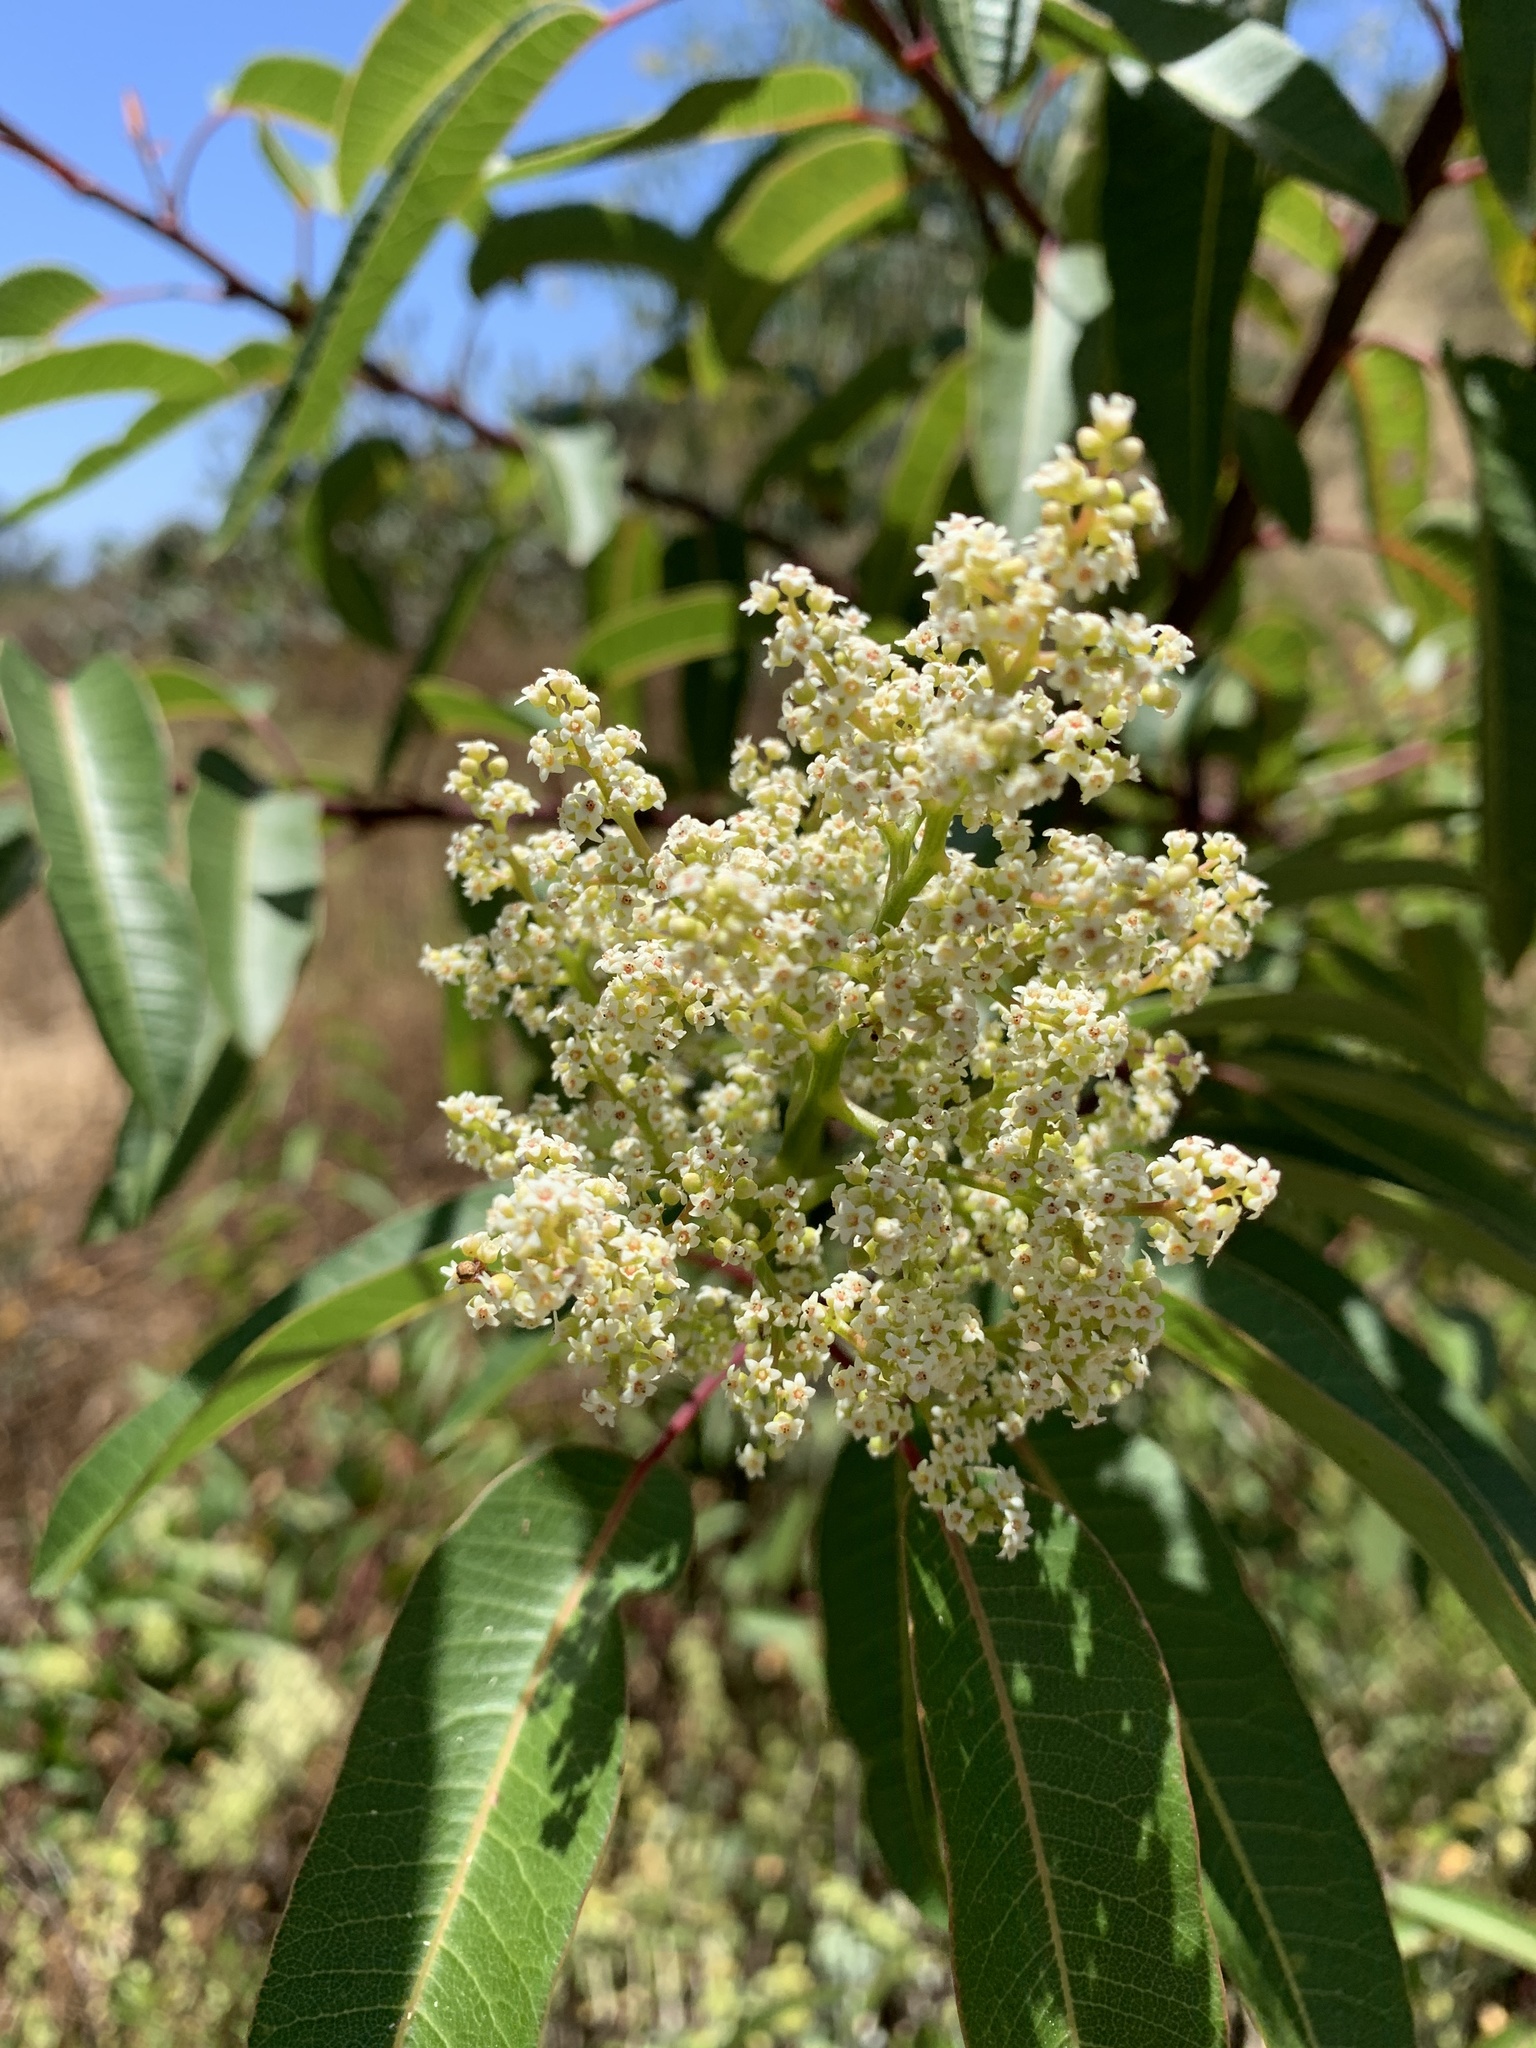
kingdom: Plantae
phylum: Tracheophyta
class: Magnoliopsida
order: Sapindales
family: Anacardiaceae
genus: Malosma
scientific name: Malosma laurina
